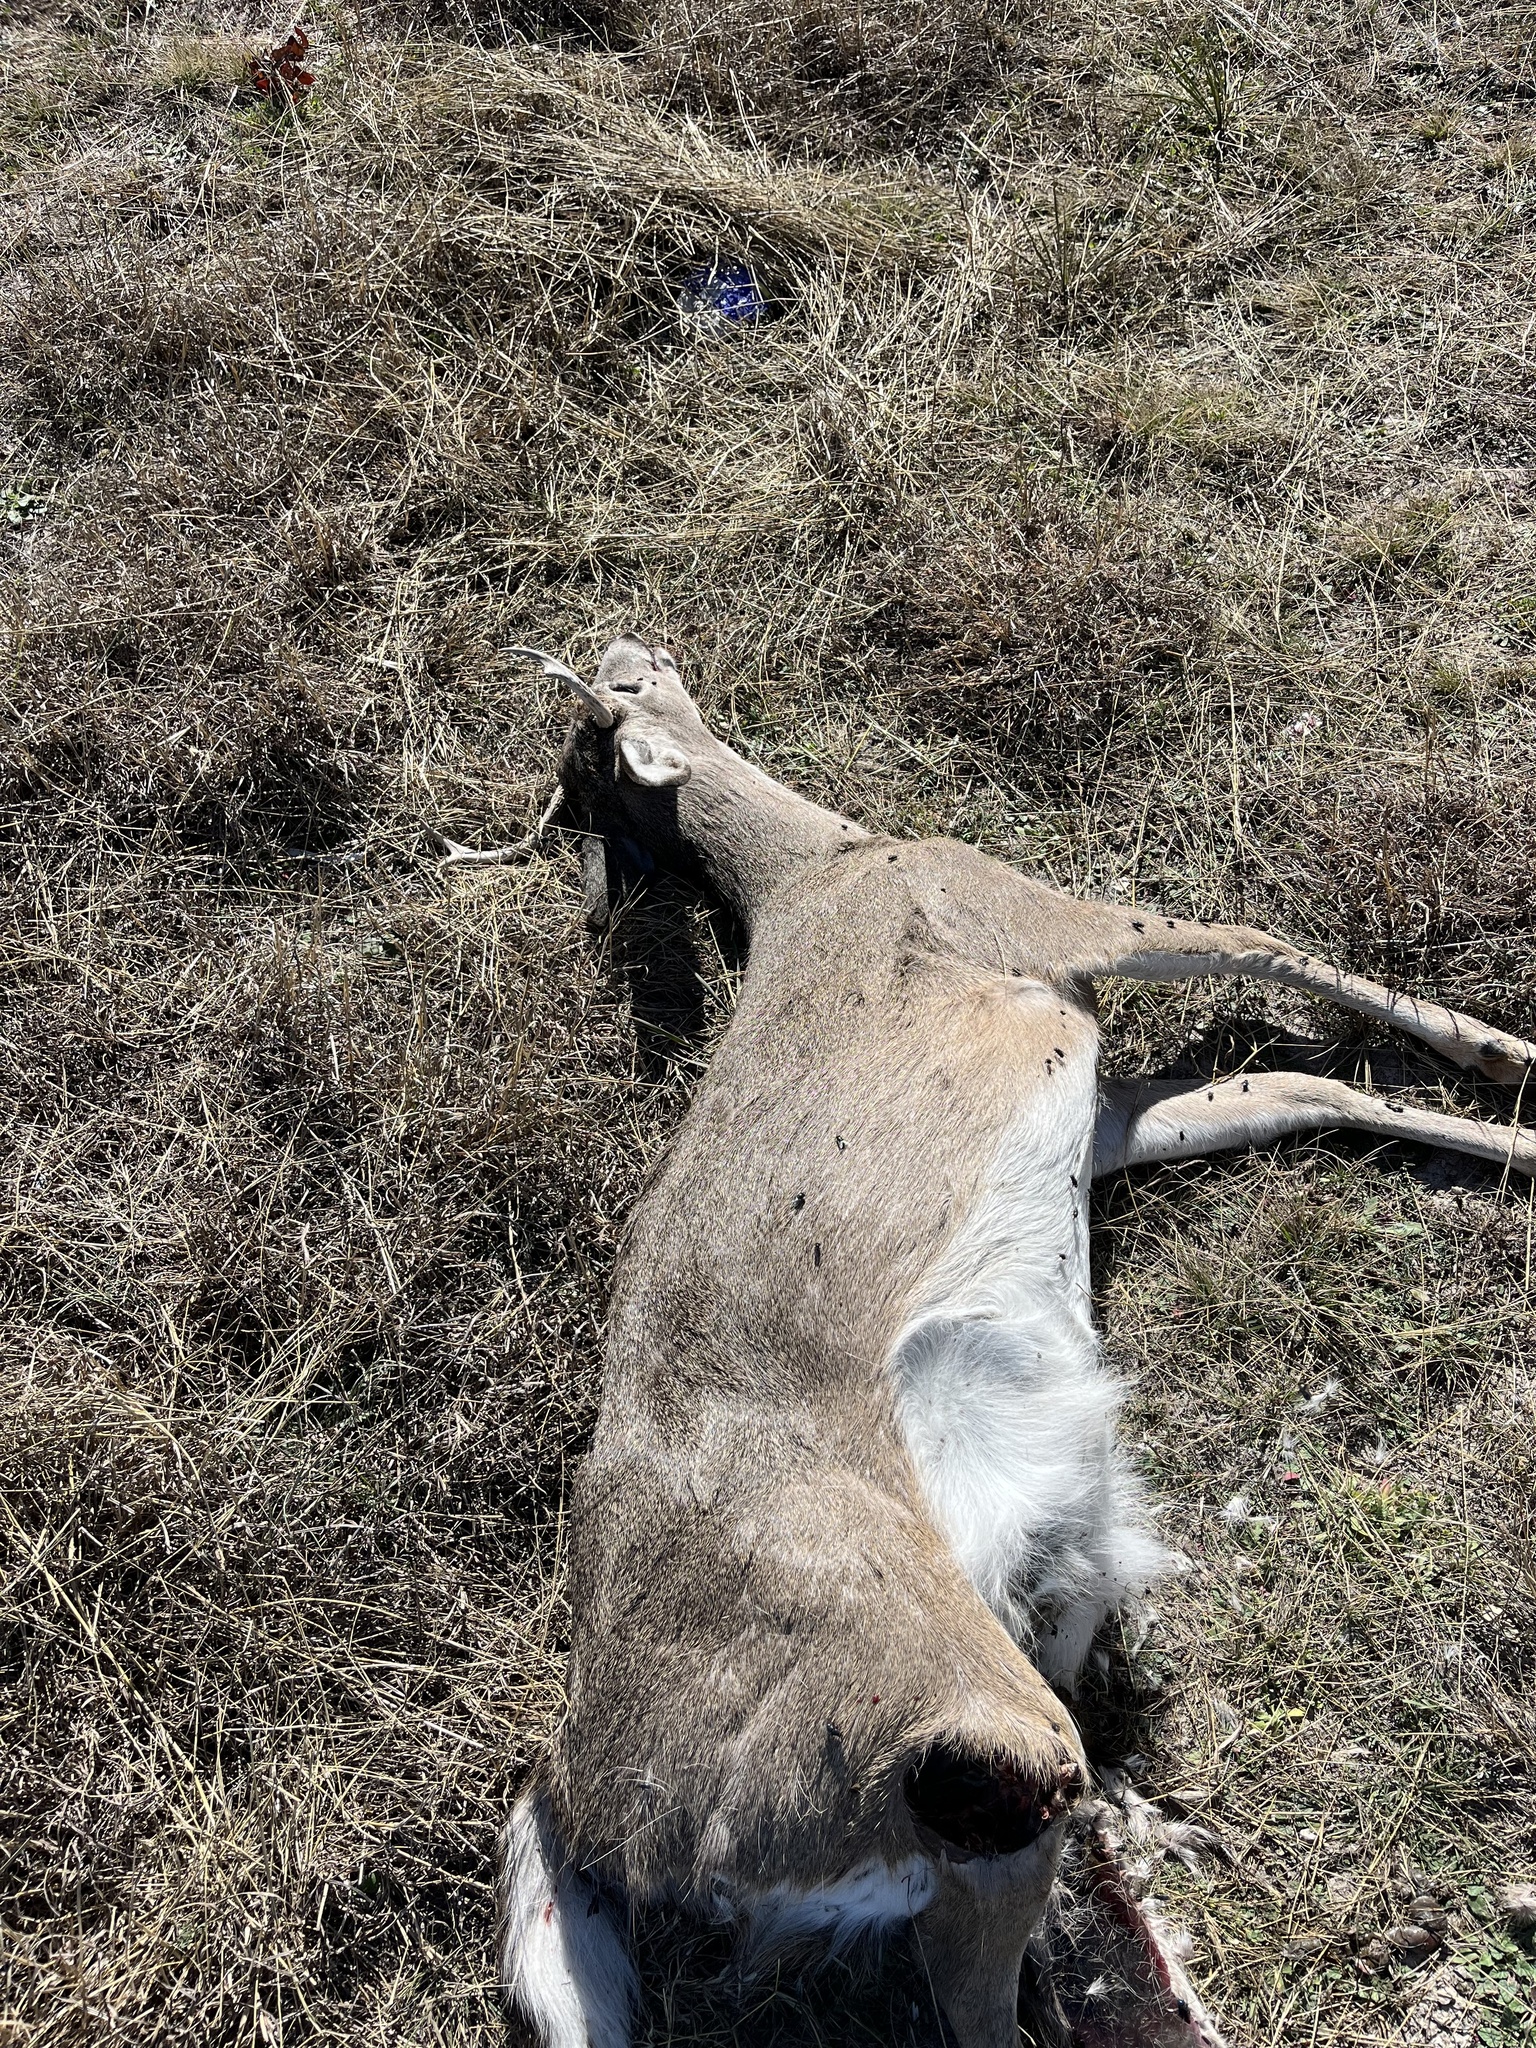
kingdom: Animalia
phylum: Chordata
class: Mammalia
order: Artiodactyla
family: Cervidae
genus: Odocoileus
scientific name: Odocoileus virginianus
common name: White-tailed deer
